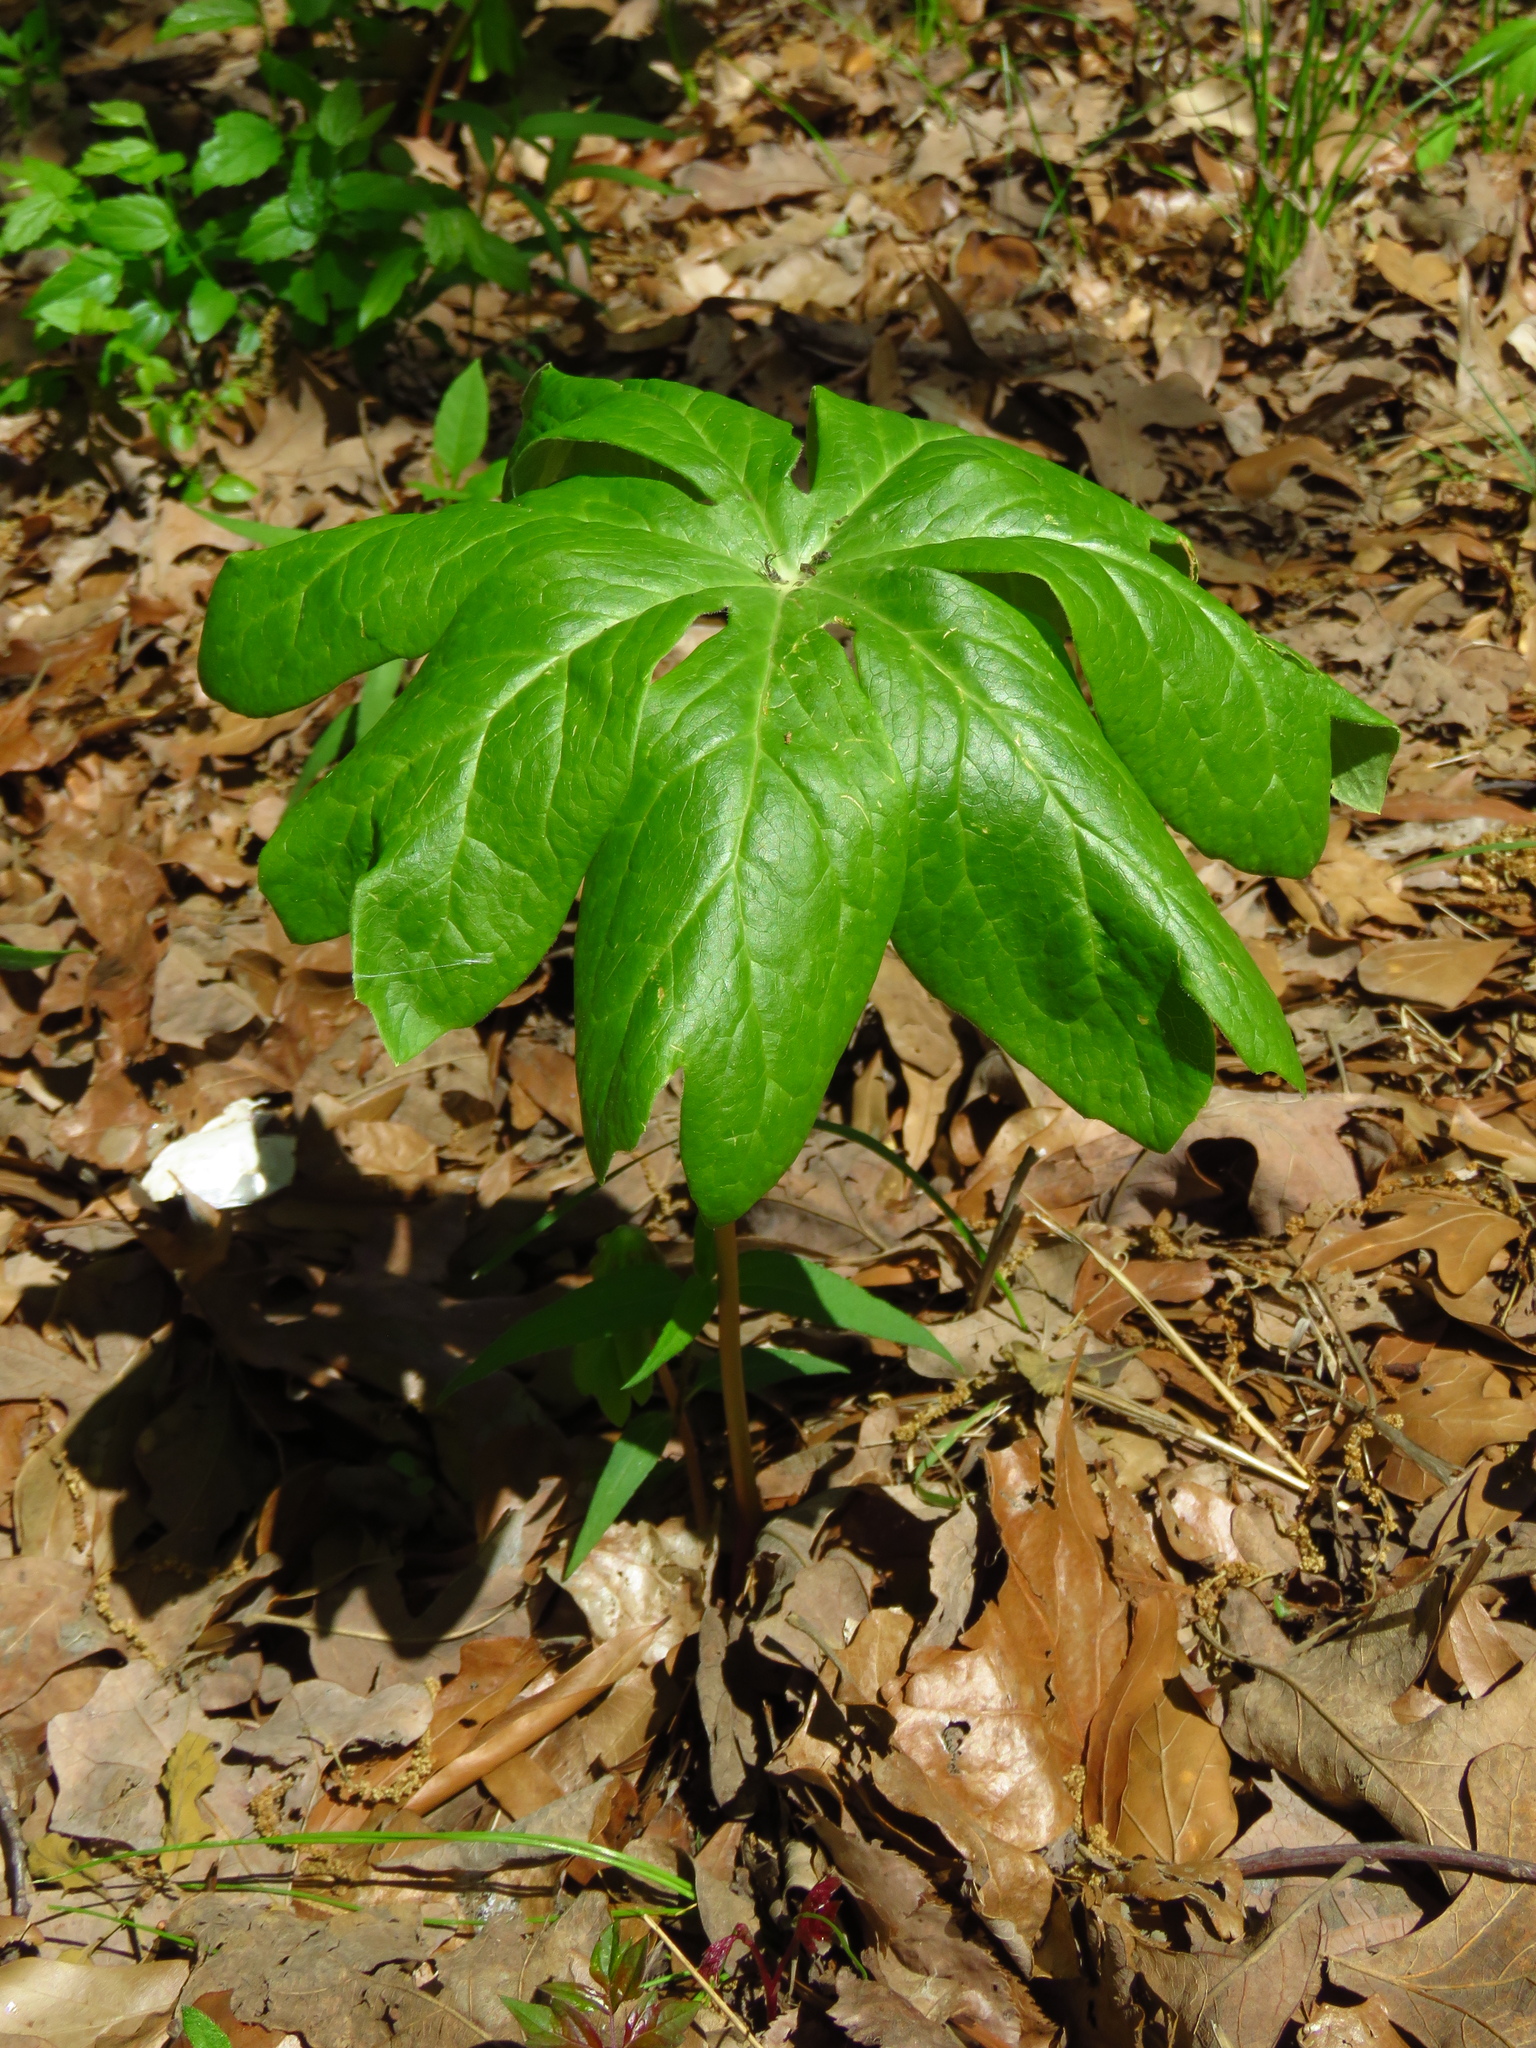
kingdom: Plantae
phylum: Tracheophyta
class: Magnoliopsida
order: Ranunculales
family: Berberidaceae
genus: Podophyllum
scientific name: Podophyllum peltatum
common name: Wild mandrake
